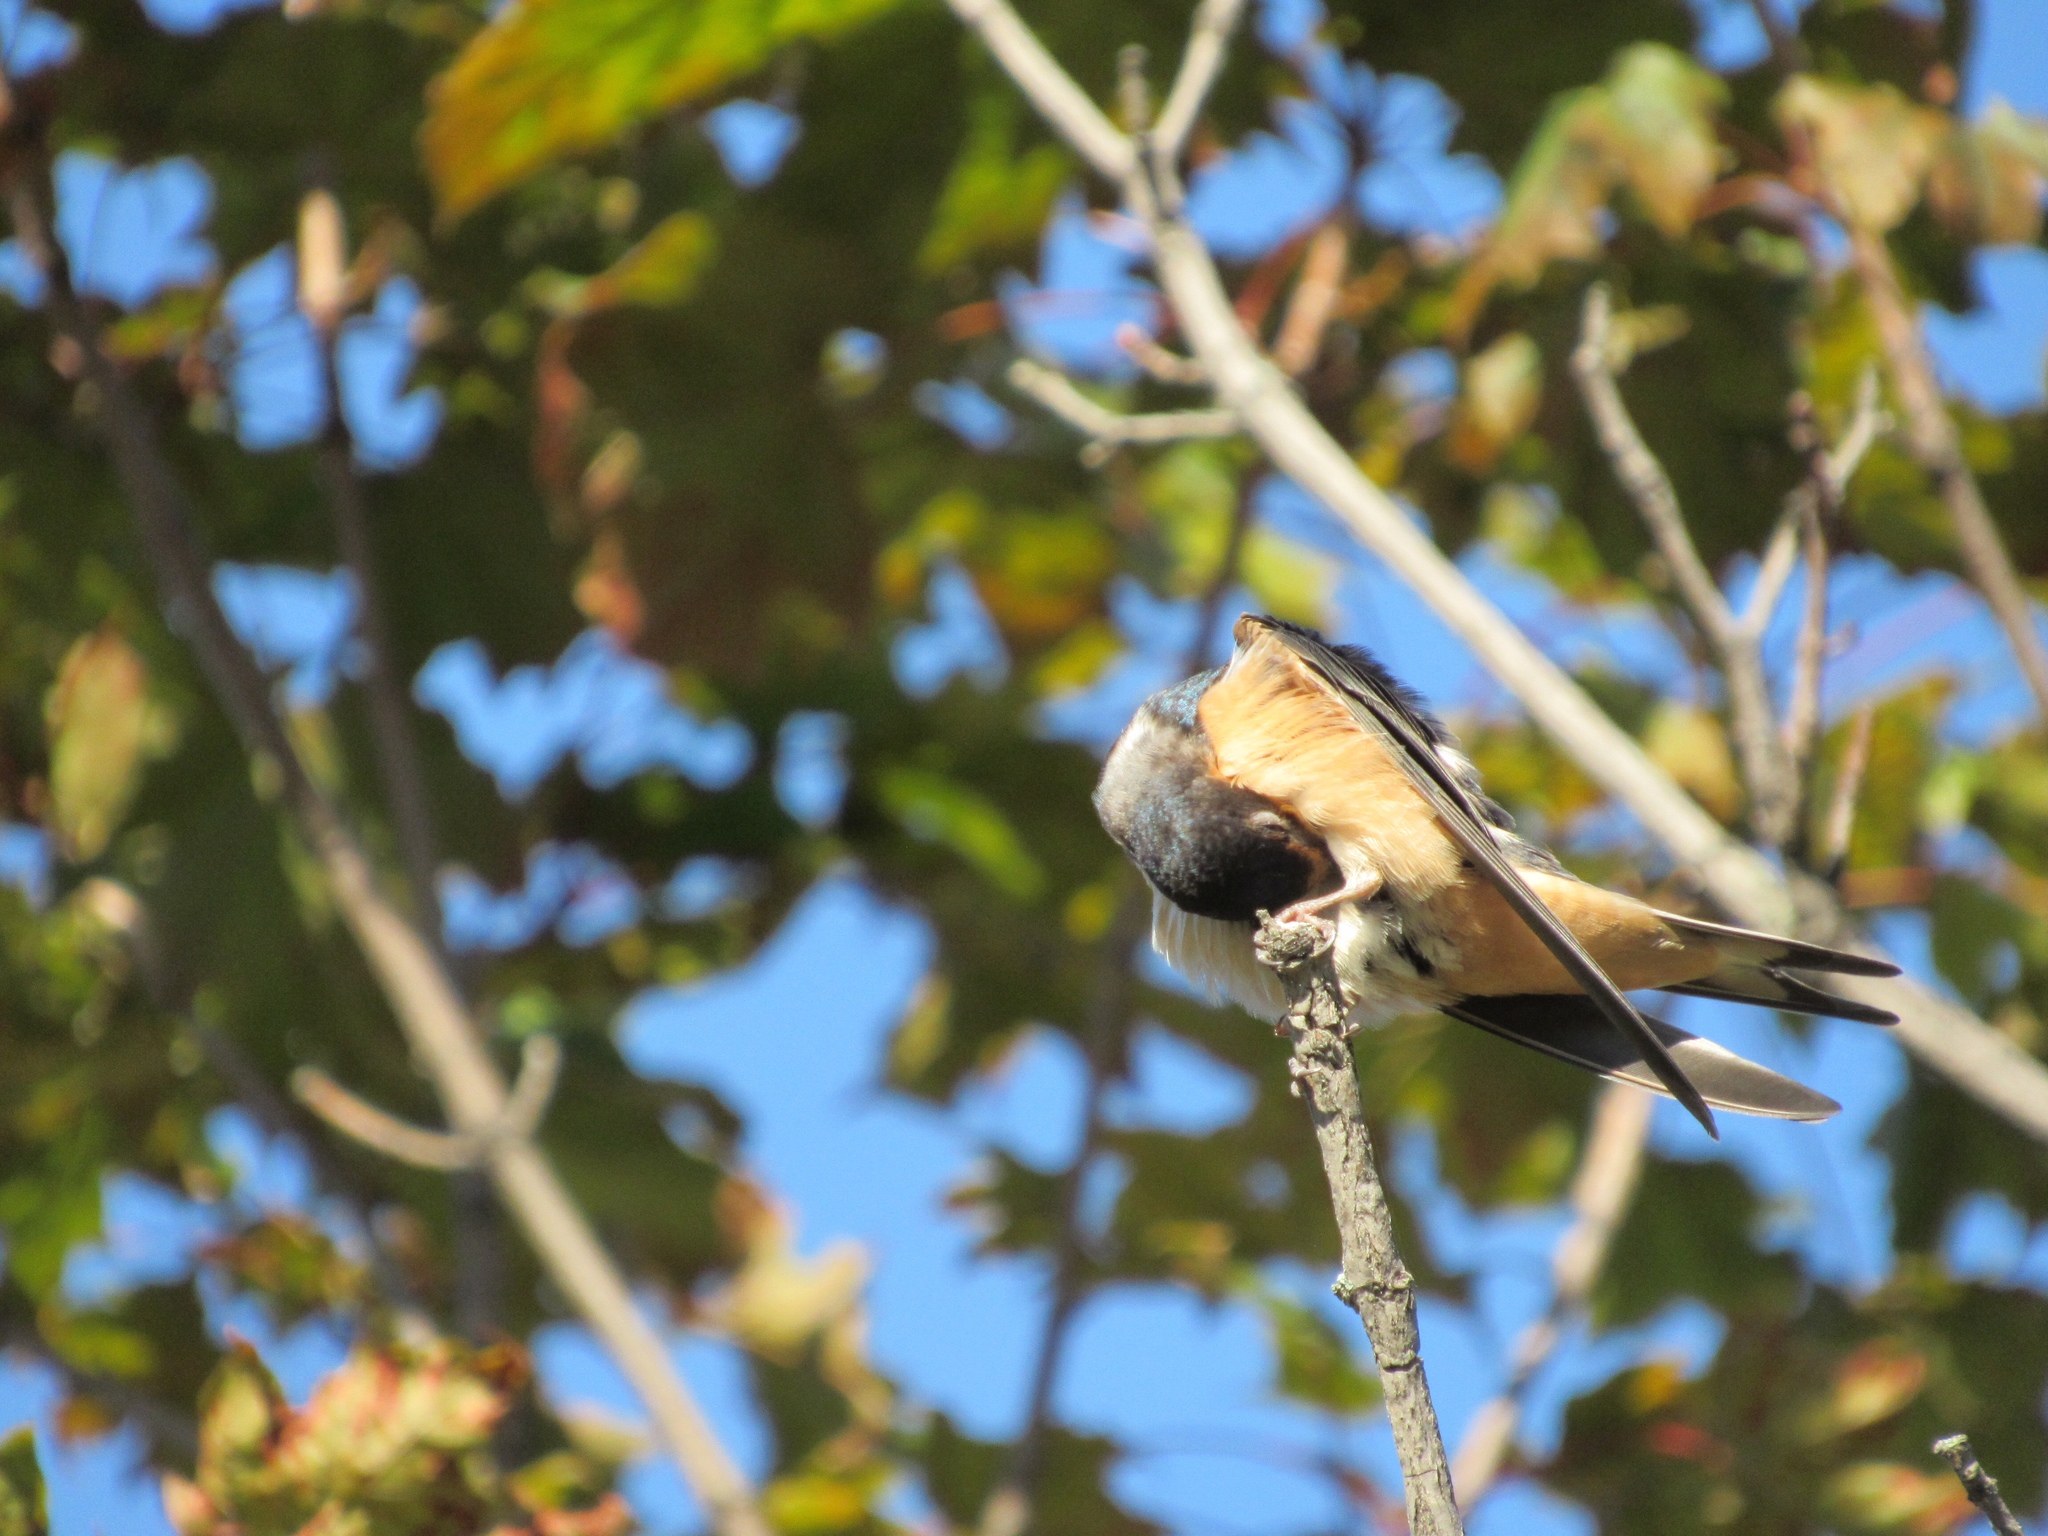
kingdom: Animalia
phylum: Chordata
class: Aves
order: Passeriformes
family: Hirundinidae
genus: Hirundo
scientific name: Hirundo rustica
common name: Barn swallow
